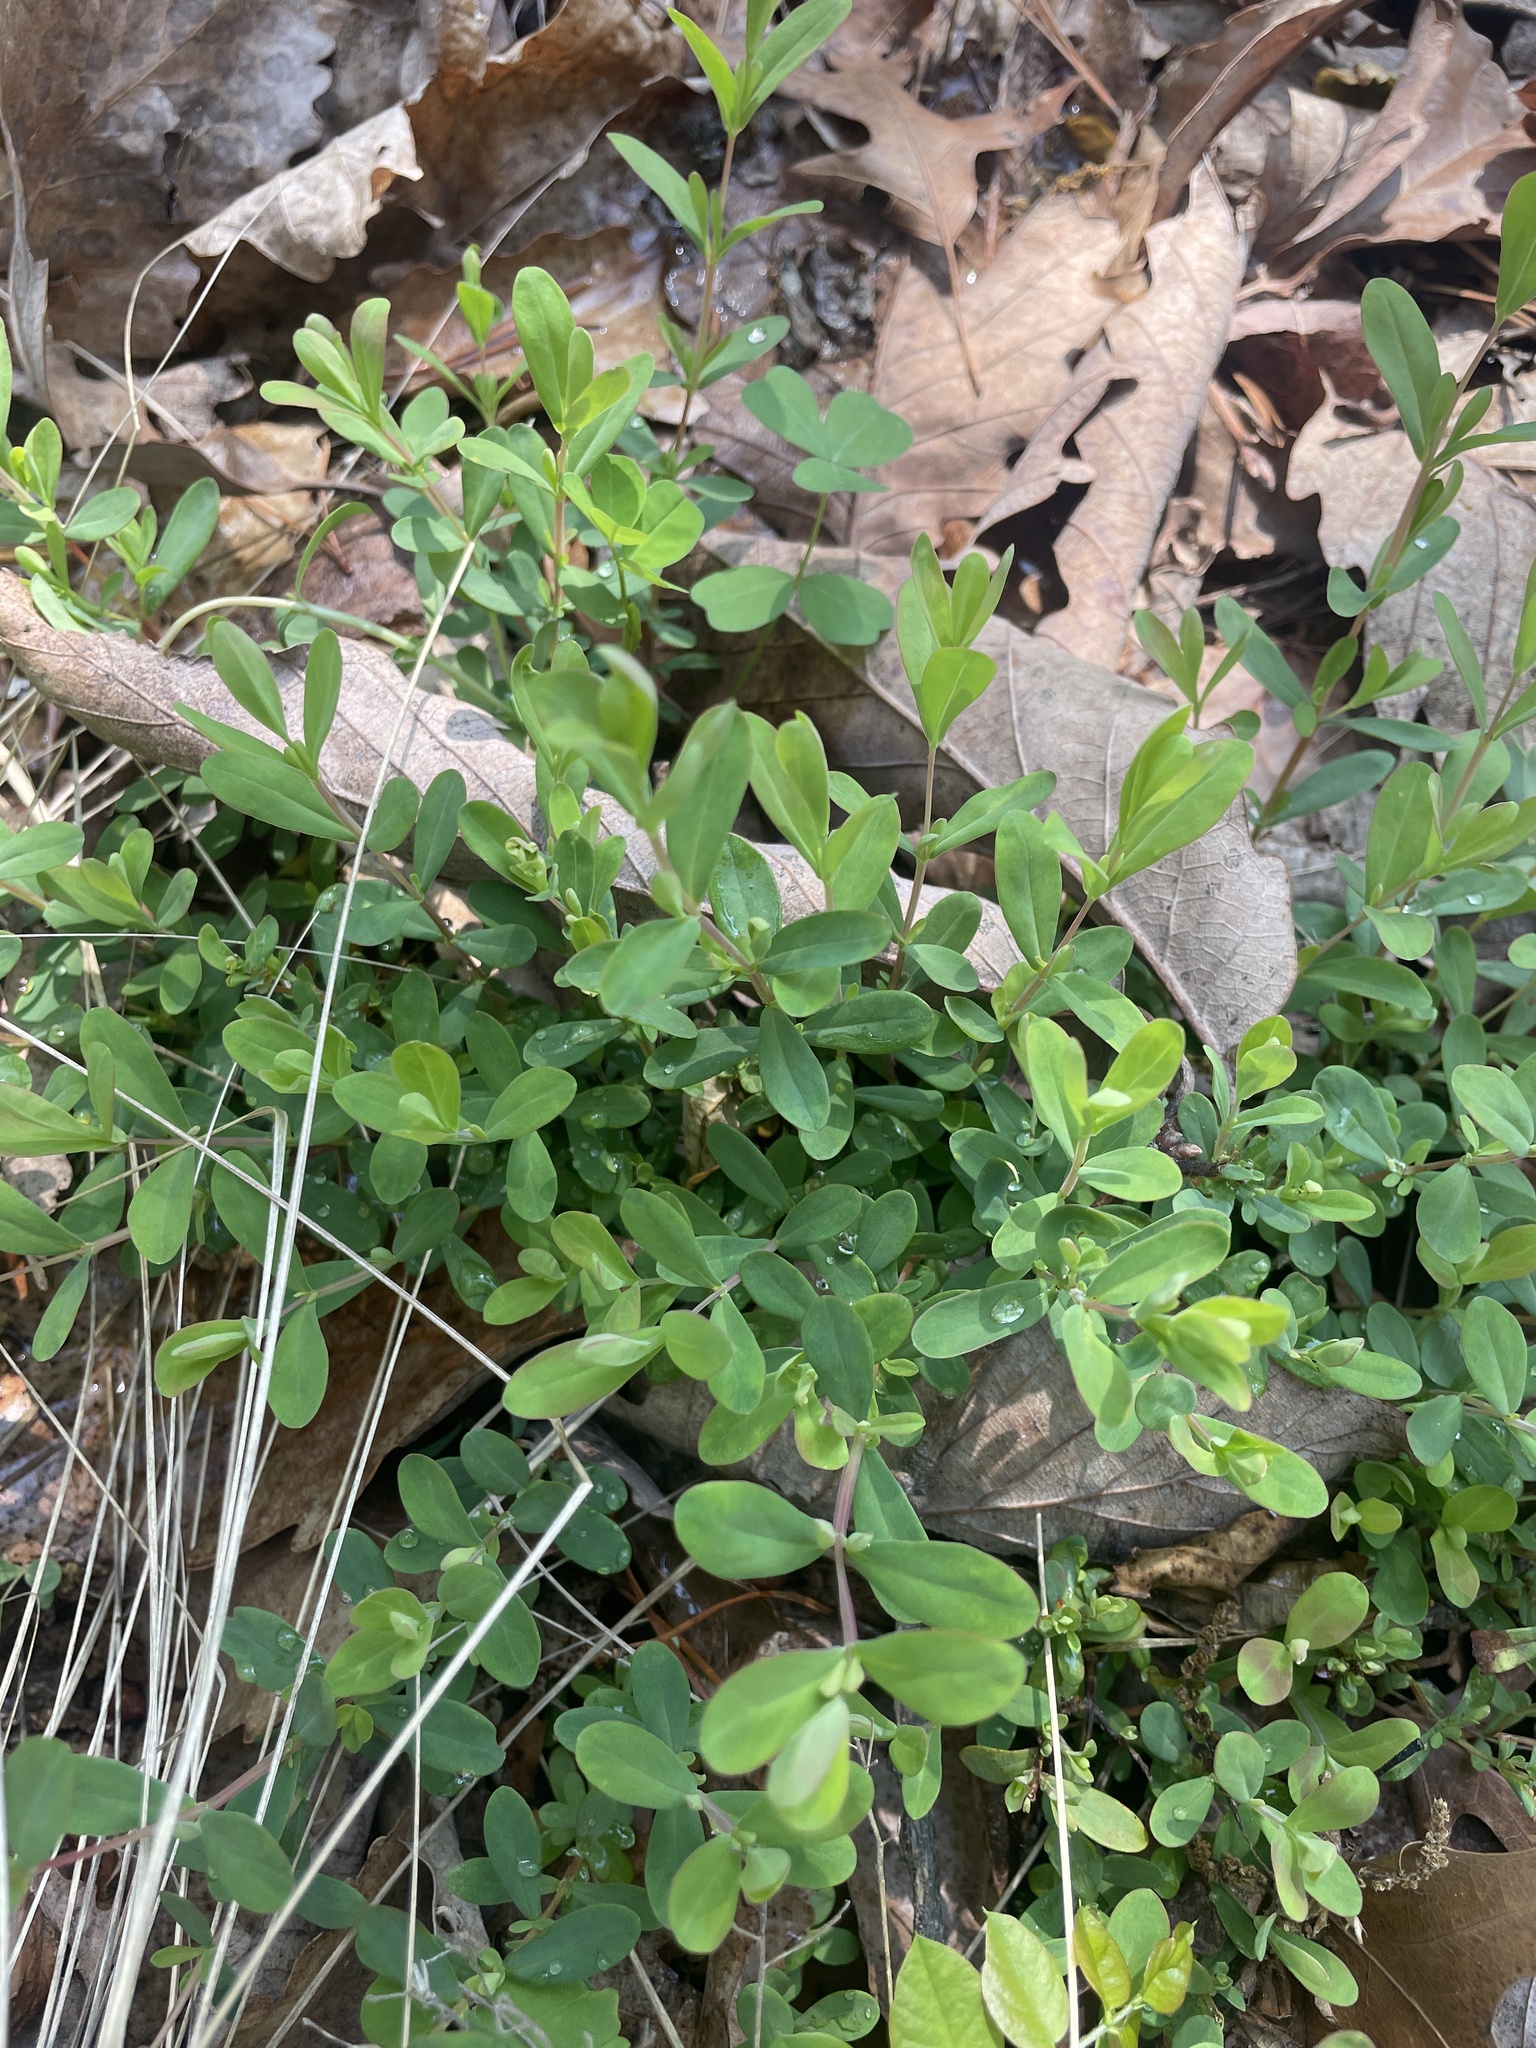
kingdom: Plantae
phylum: Tracheophyta
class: Magnoliopsida
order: Malpighiales
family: Hypericaceae
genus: Hypericum
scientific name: Hypericum hypericoides
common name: St. andrew's cross
